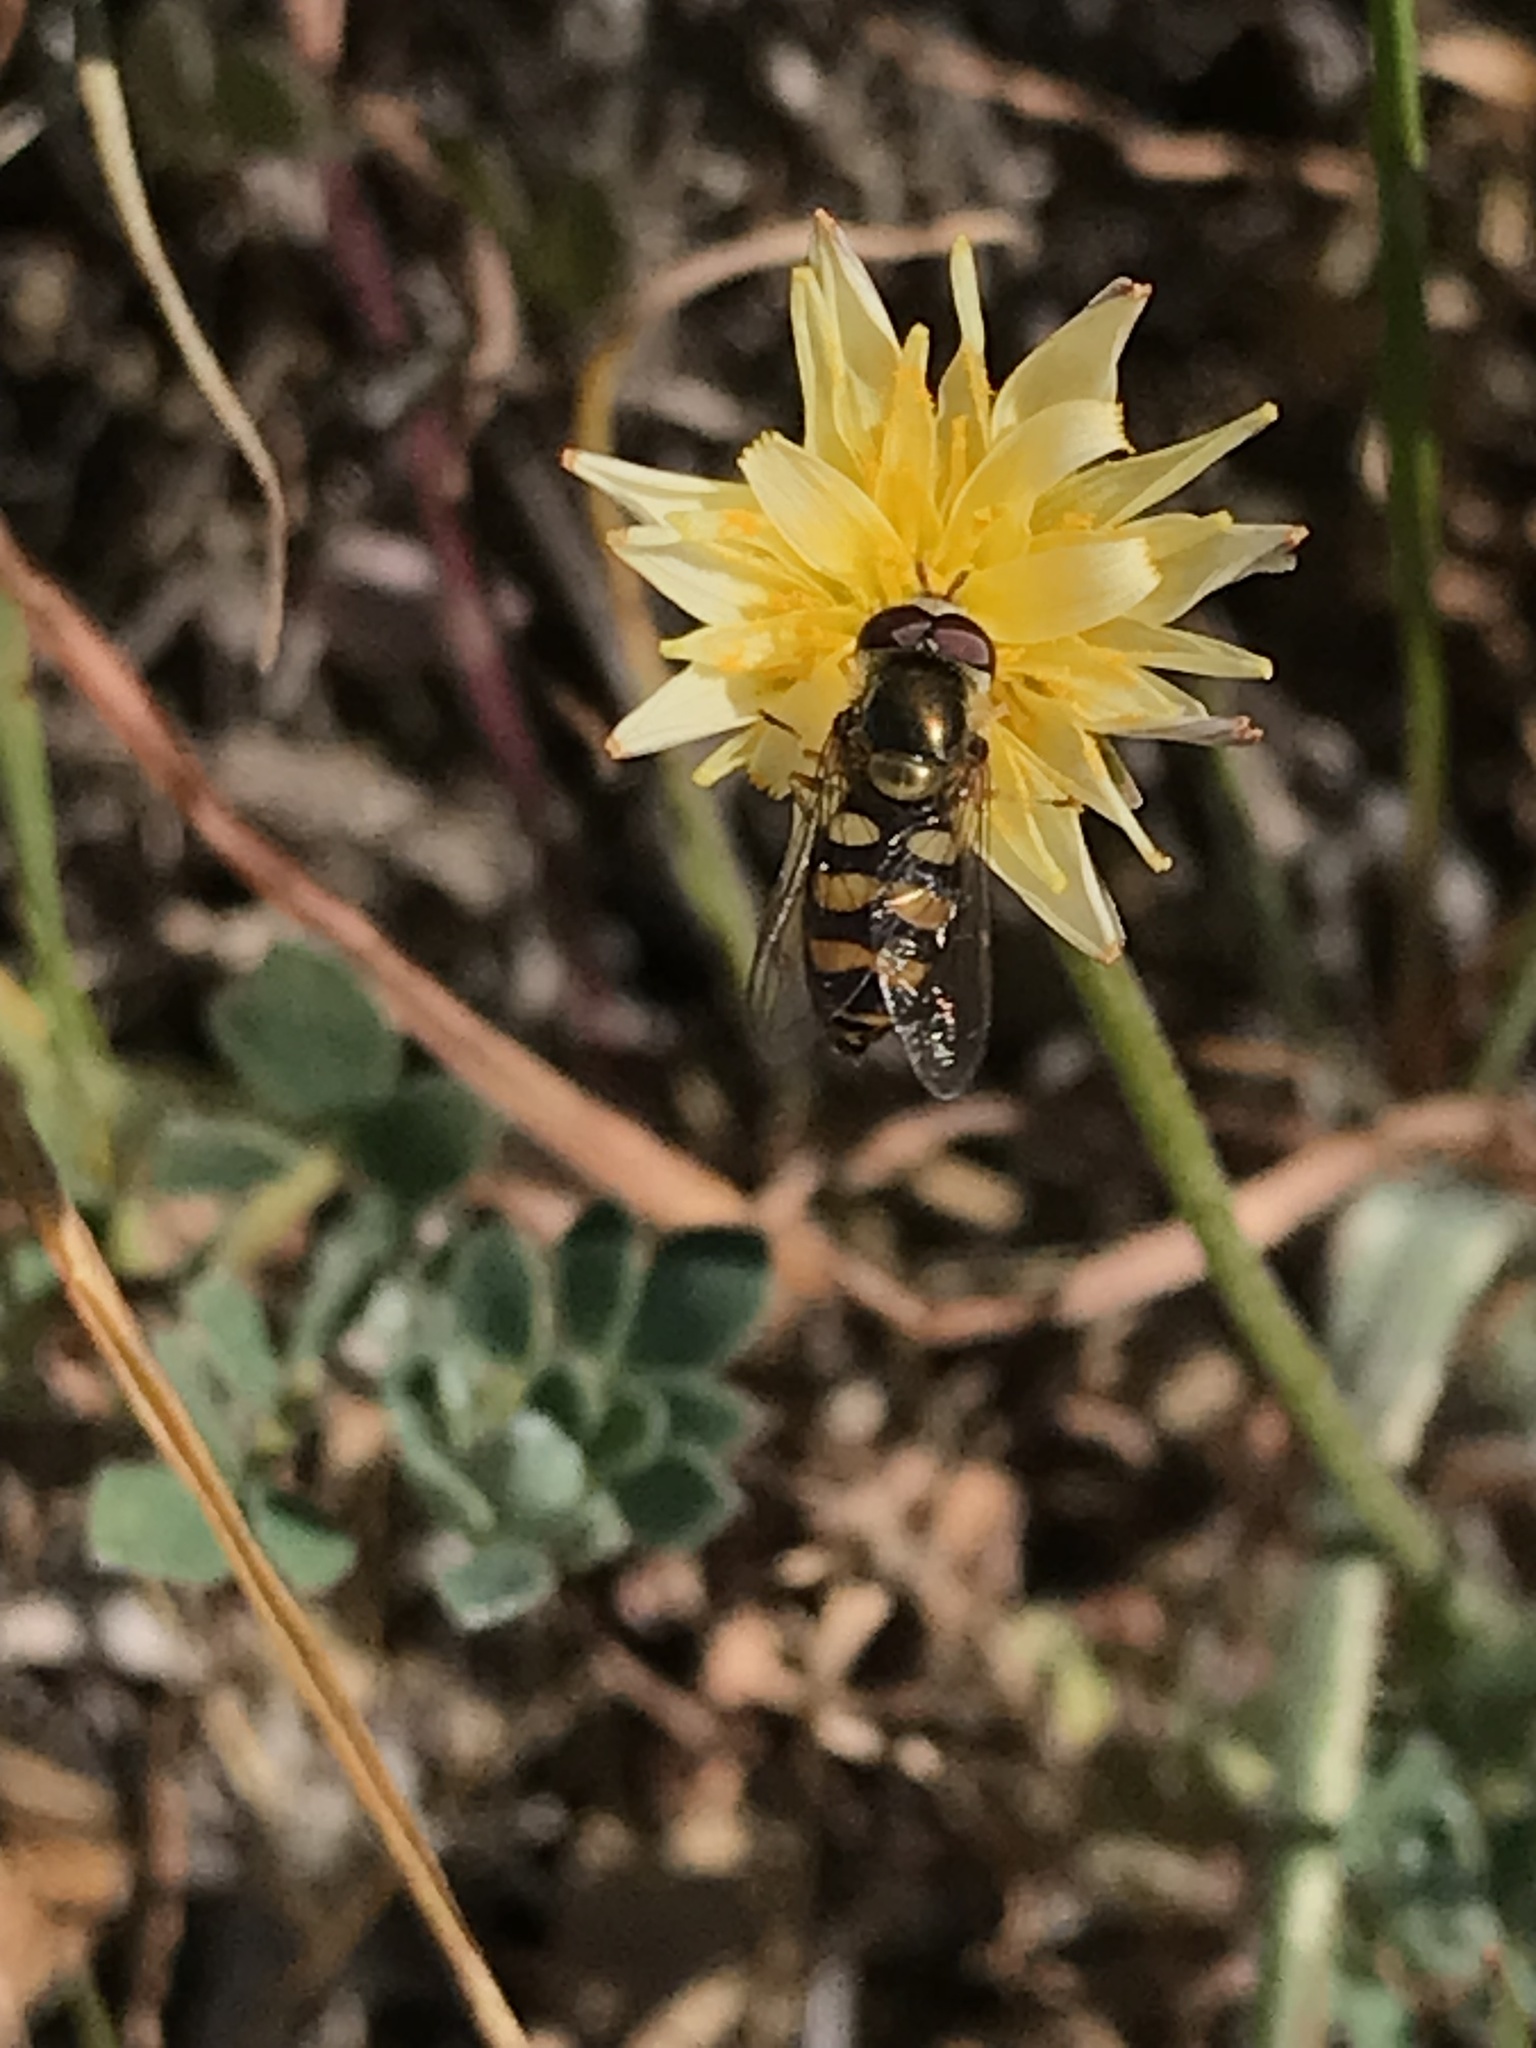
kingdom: Animalia
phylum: Arthropoda
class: Insecta
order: Diptera
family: Syrphidae
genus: Eupeodes
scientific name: Eupeodes fumipennis
